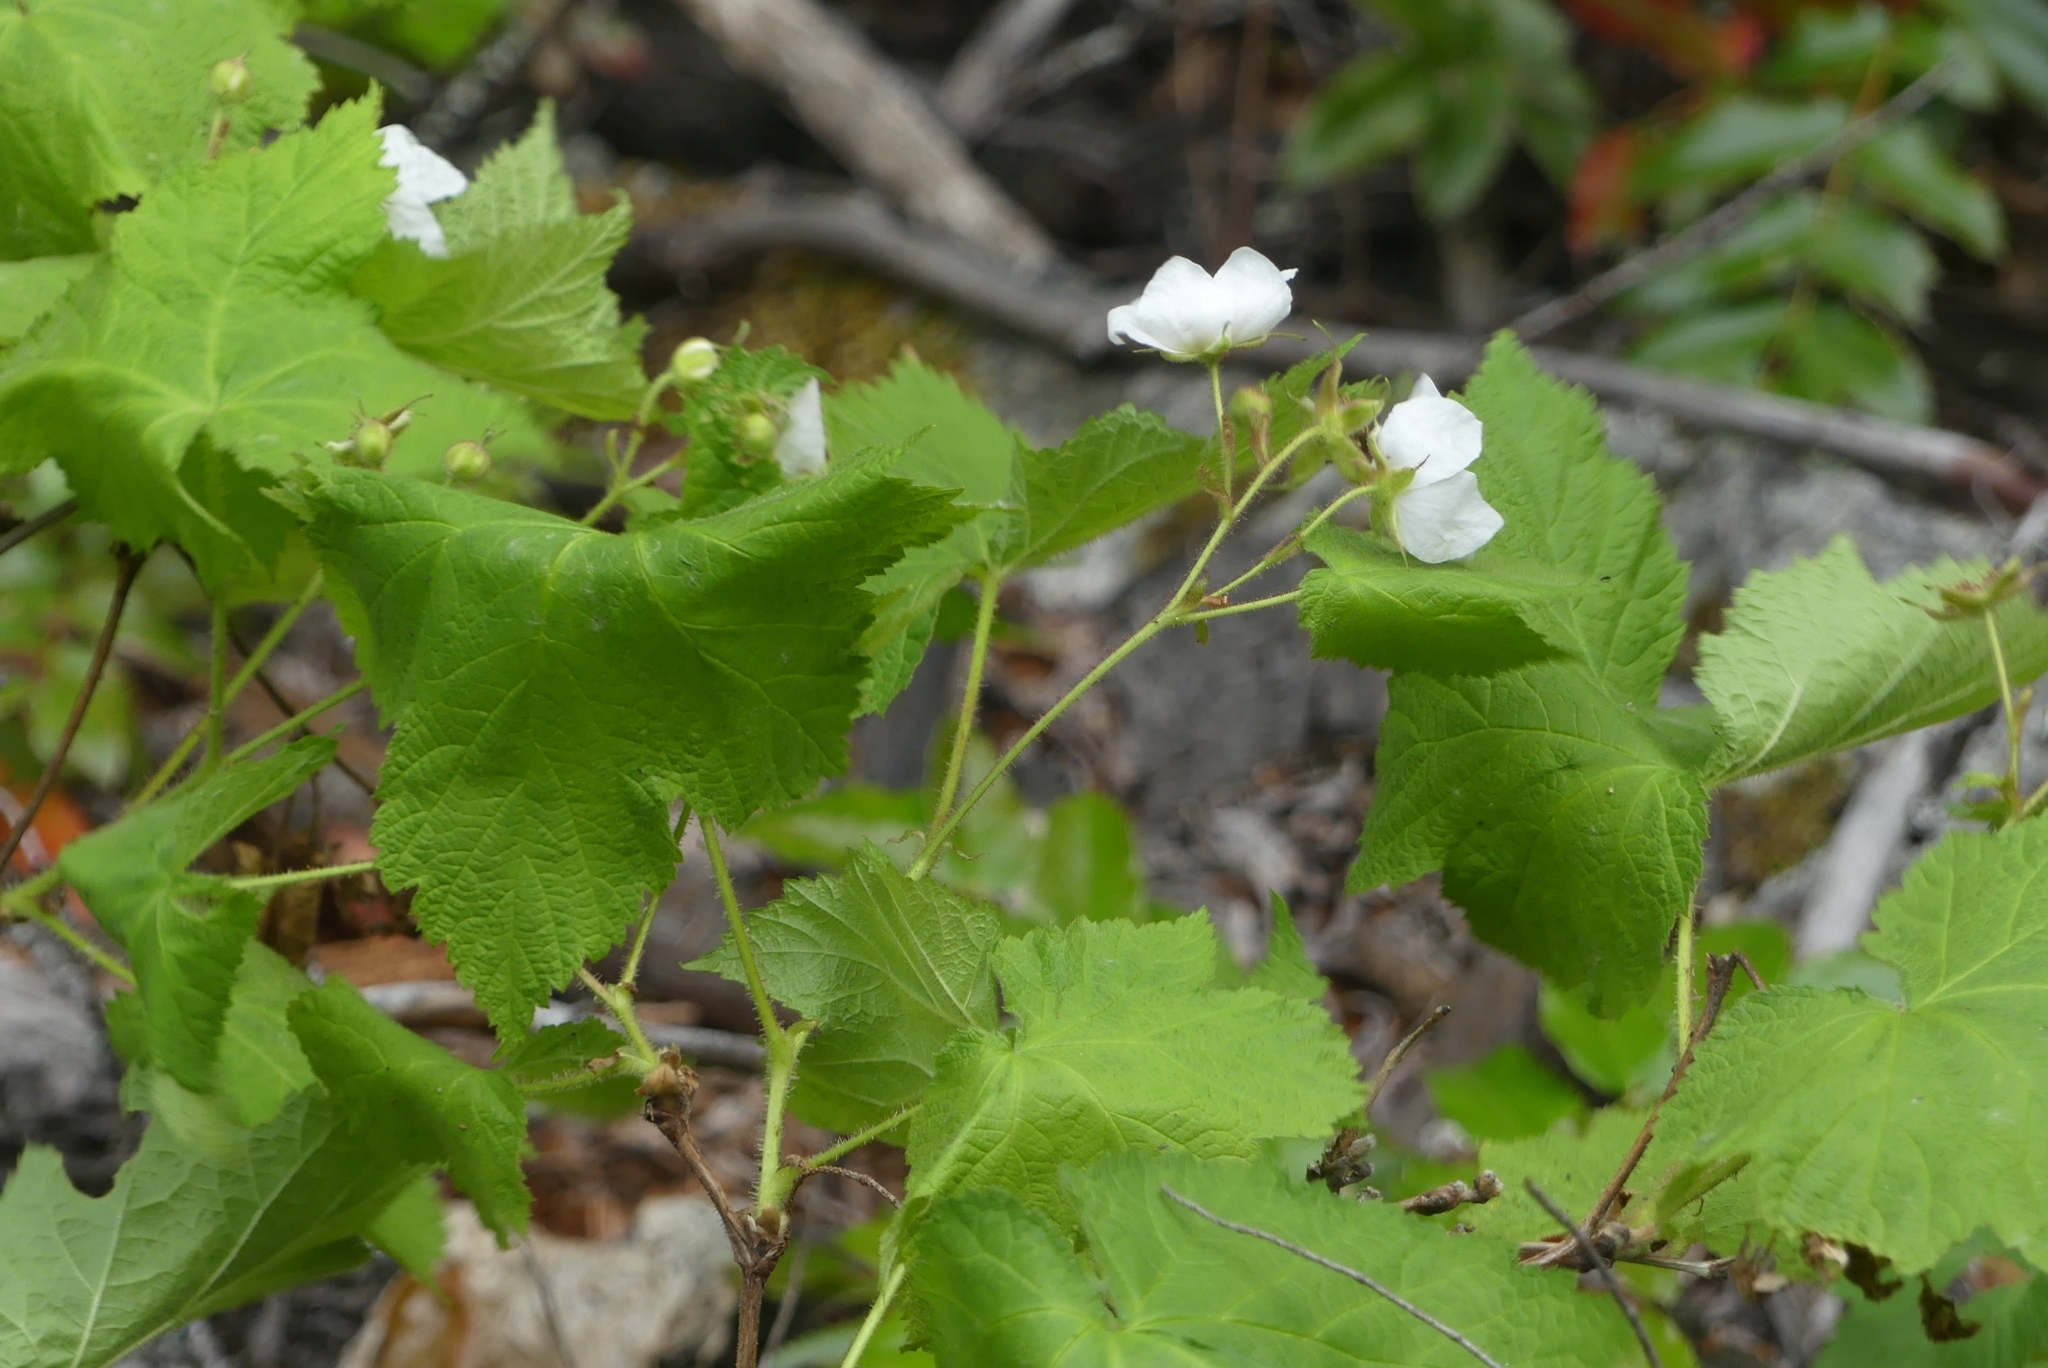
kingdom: Plantae
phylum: Tracheophyta
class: Magnoliopsida
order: Rosales
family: Rosaceae
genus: Rubus
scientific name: Rubus parviflorus
